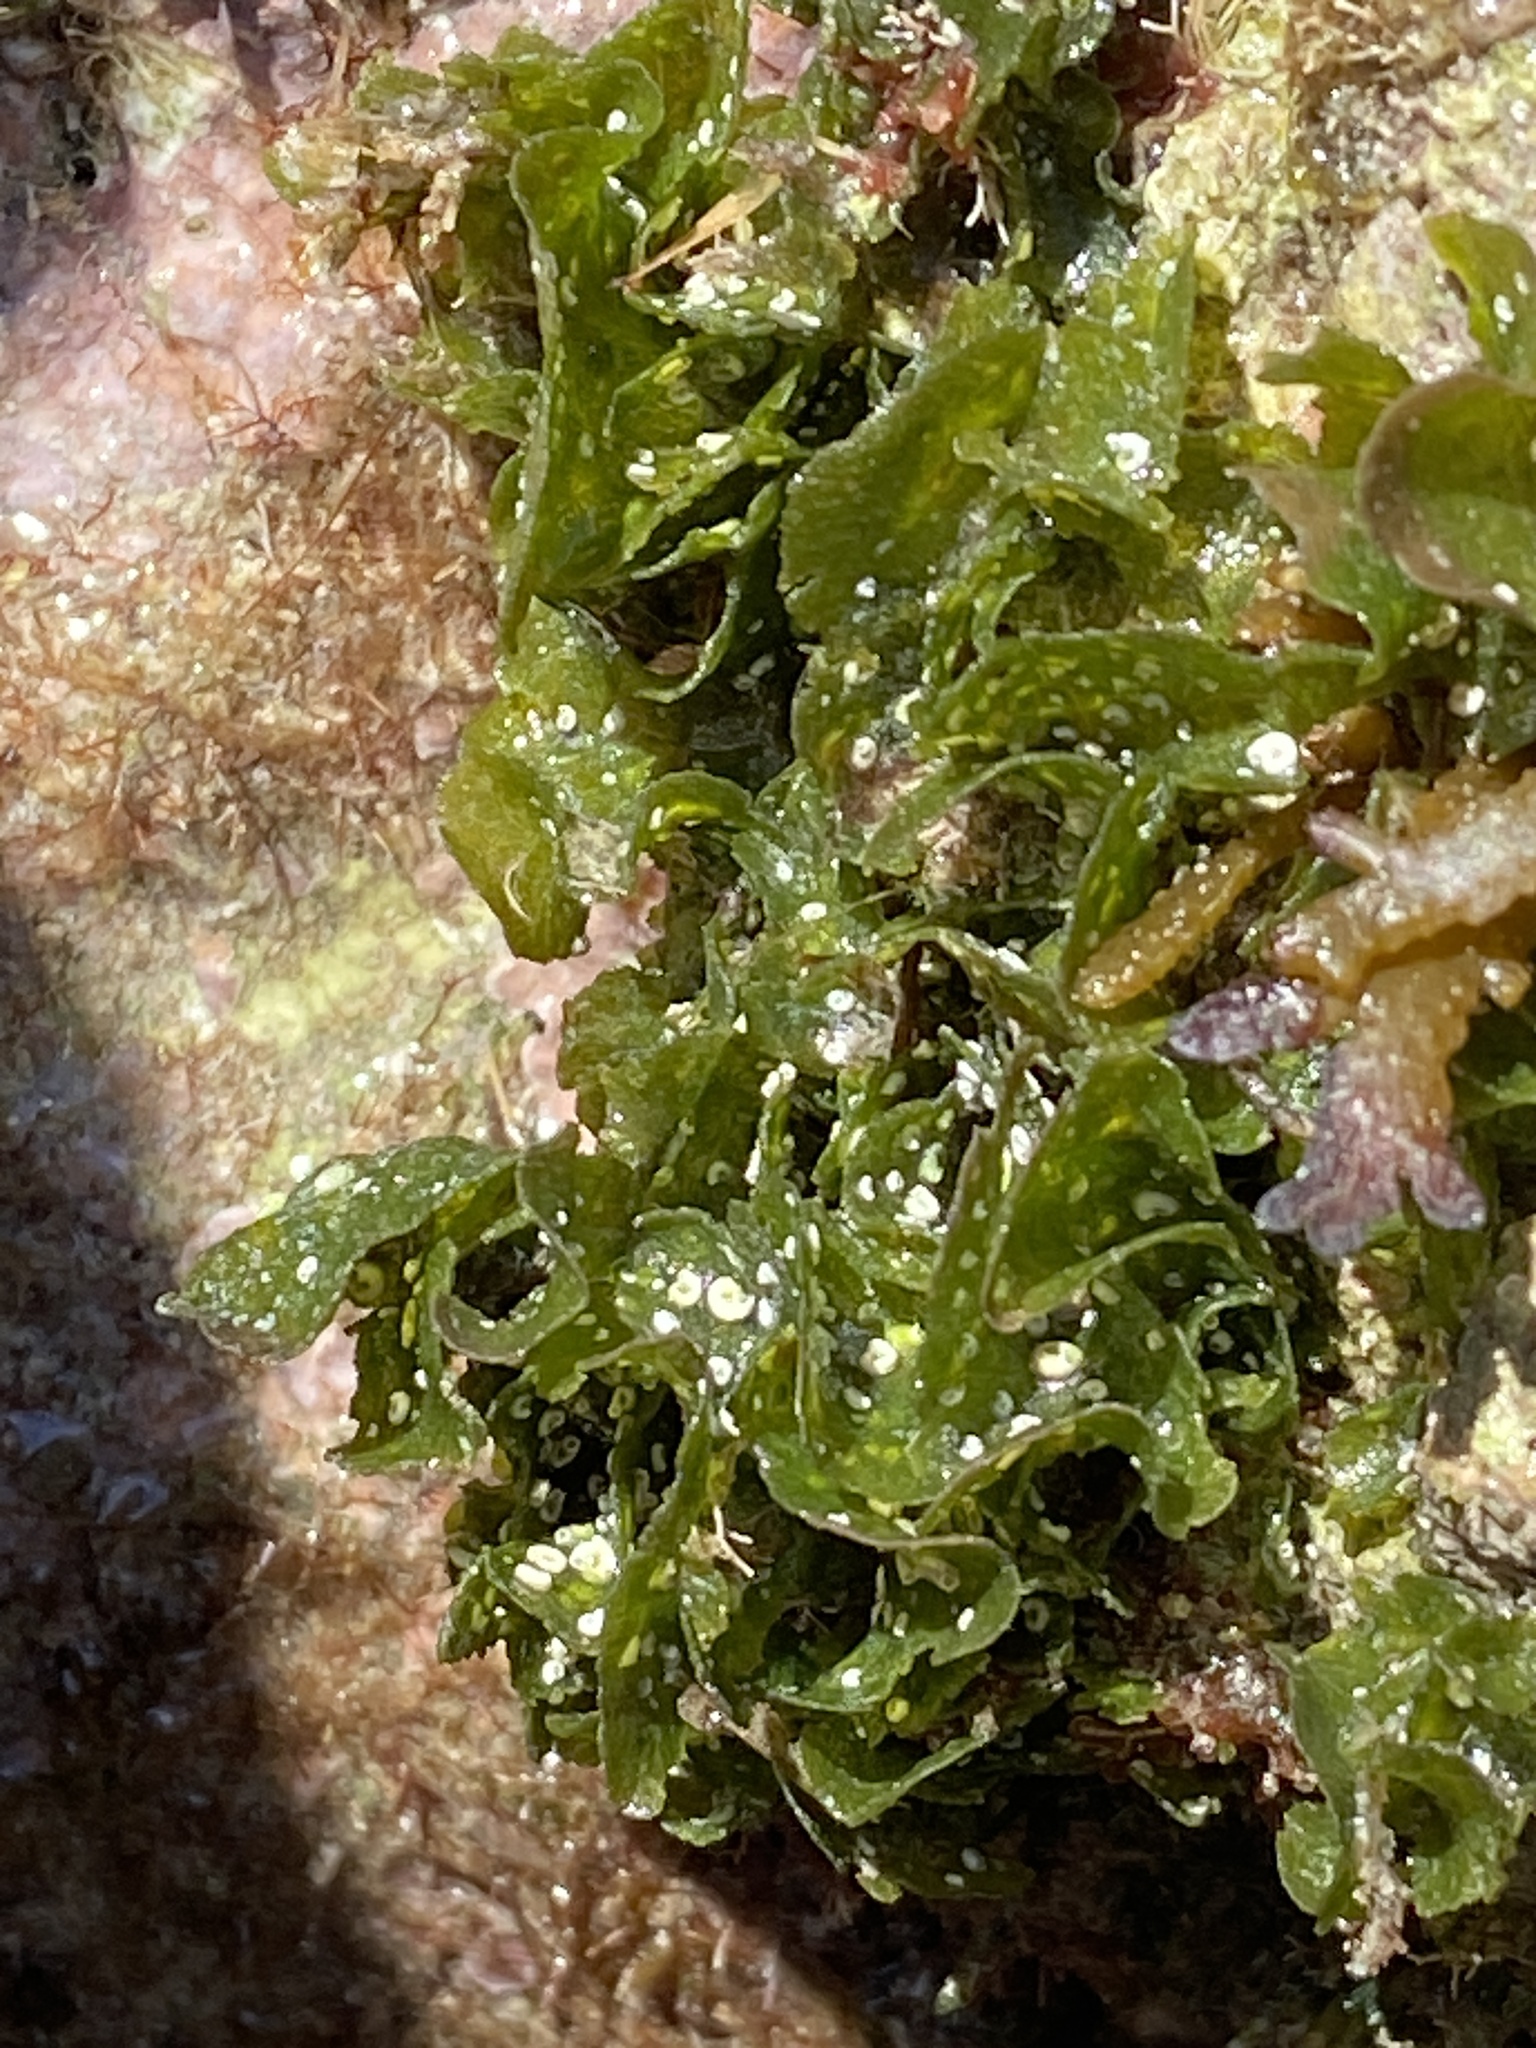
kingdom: Plantae
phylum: Chlorophyta
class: Ulvophyceae
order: Ulvales
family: Ulvaceae
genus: Ulva
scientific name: Ulva lactuca
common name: Sea lettuce
